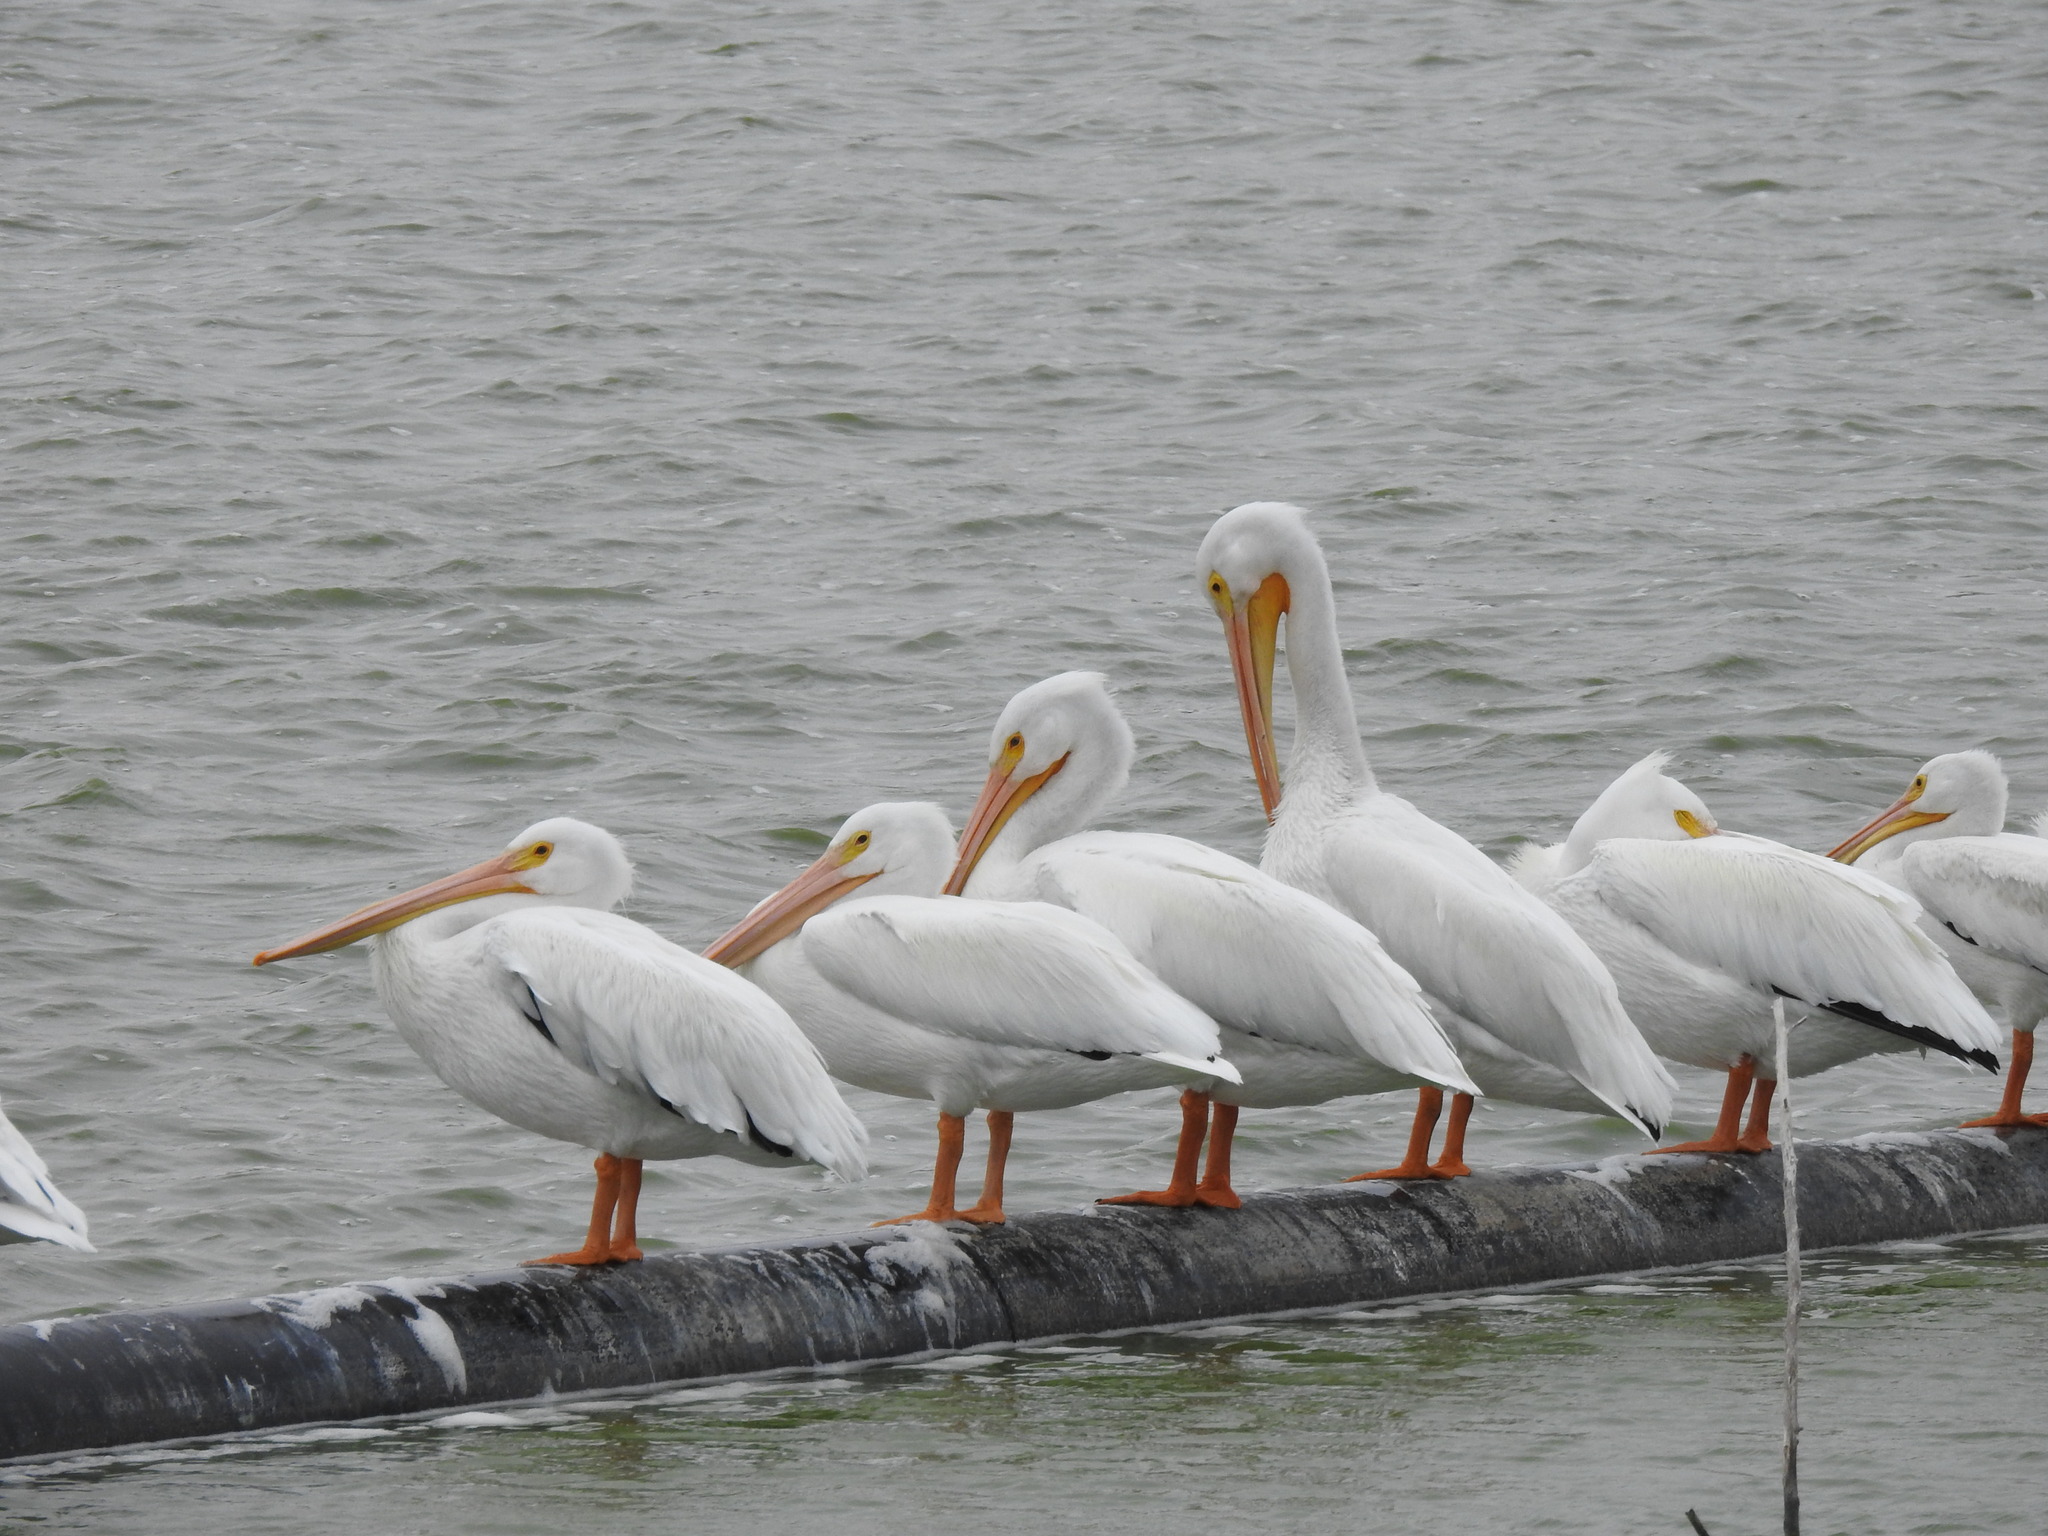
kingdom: Animalia
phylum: Chordata
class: Aves
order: Pelecaniformes
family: Pelecanidae
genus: Pelecanus
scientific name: Pelecanus erythrorhynchos
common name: American white pelican
